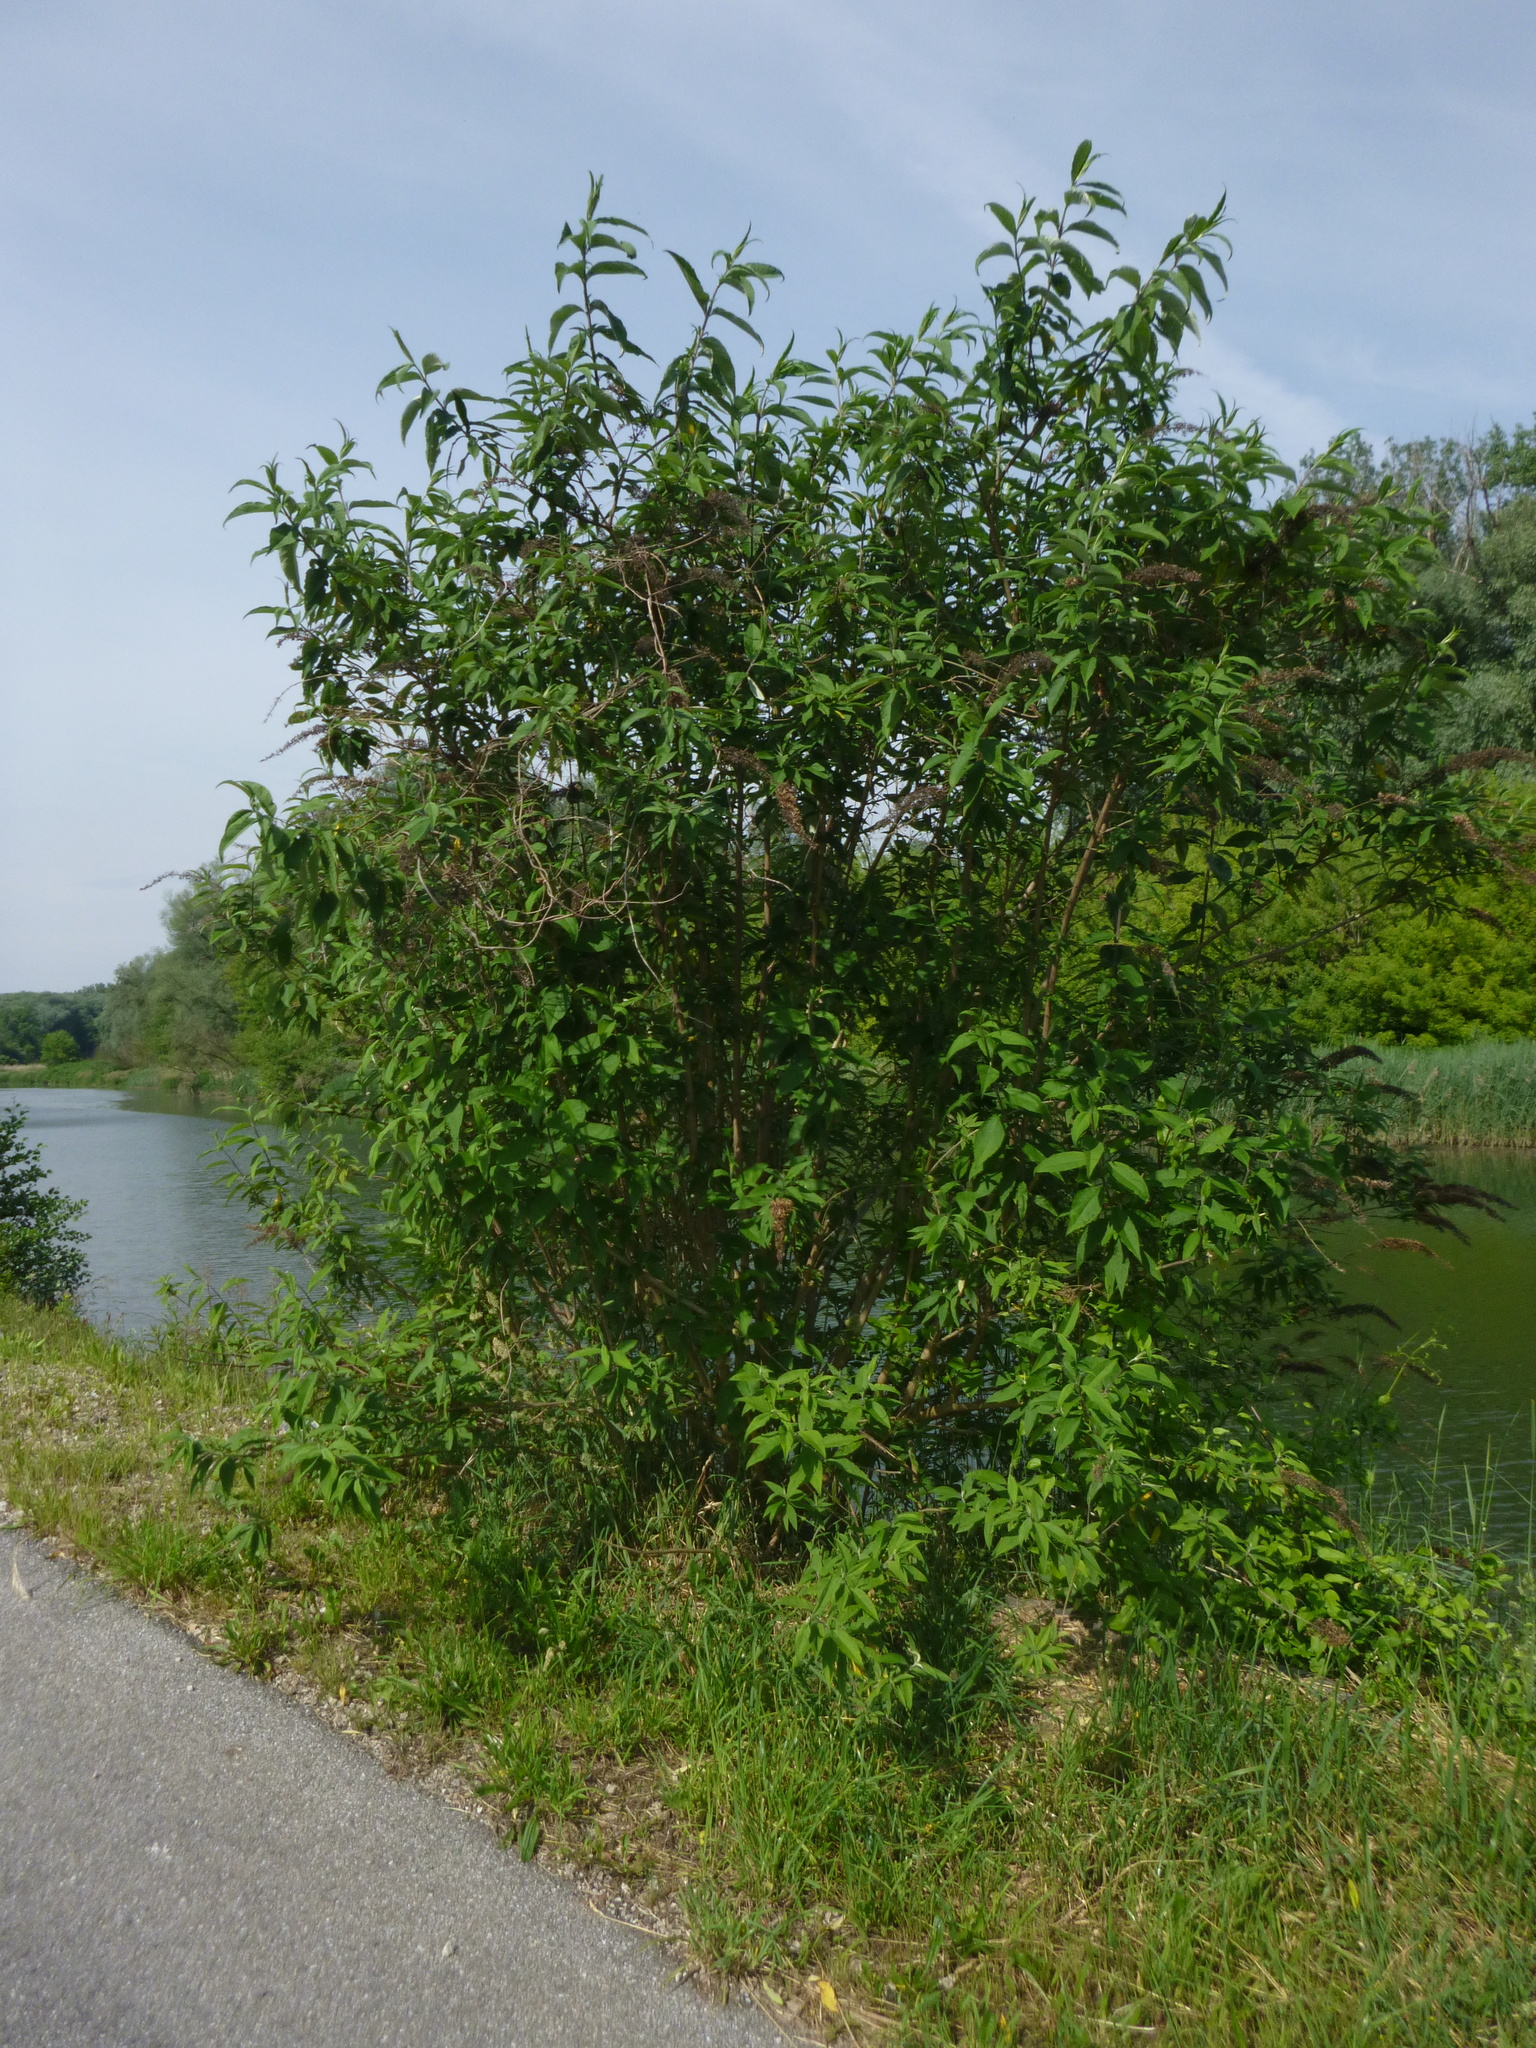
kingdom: Plantae
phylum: Tracheophyta
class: Magnoliopsida
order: Lamiales
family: Scrophulariaceae
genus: Buddleja
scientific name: Buddleja davidii
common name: Butterfly-bush
